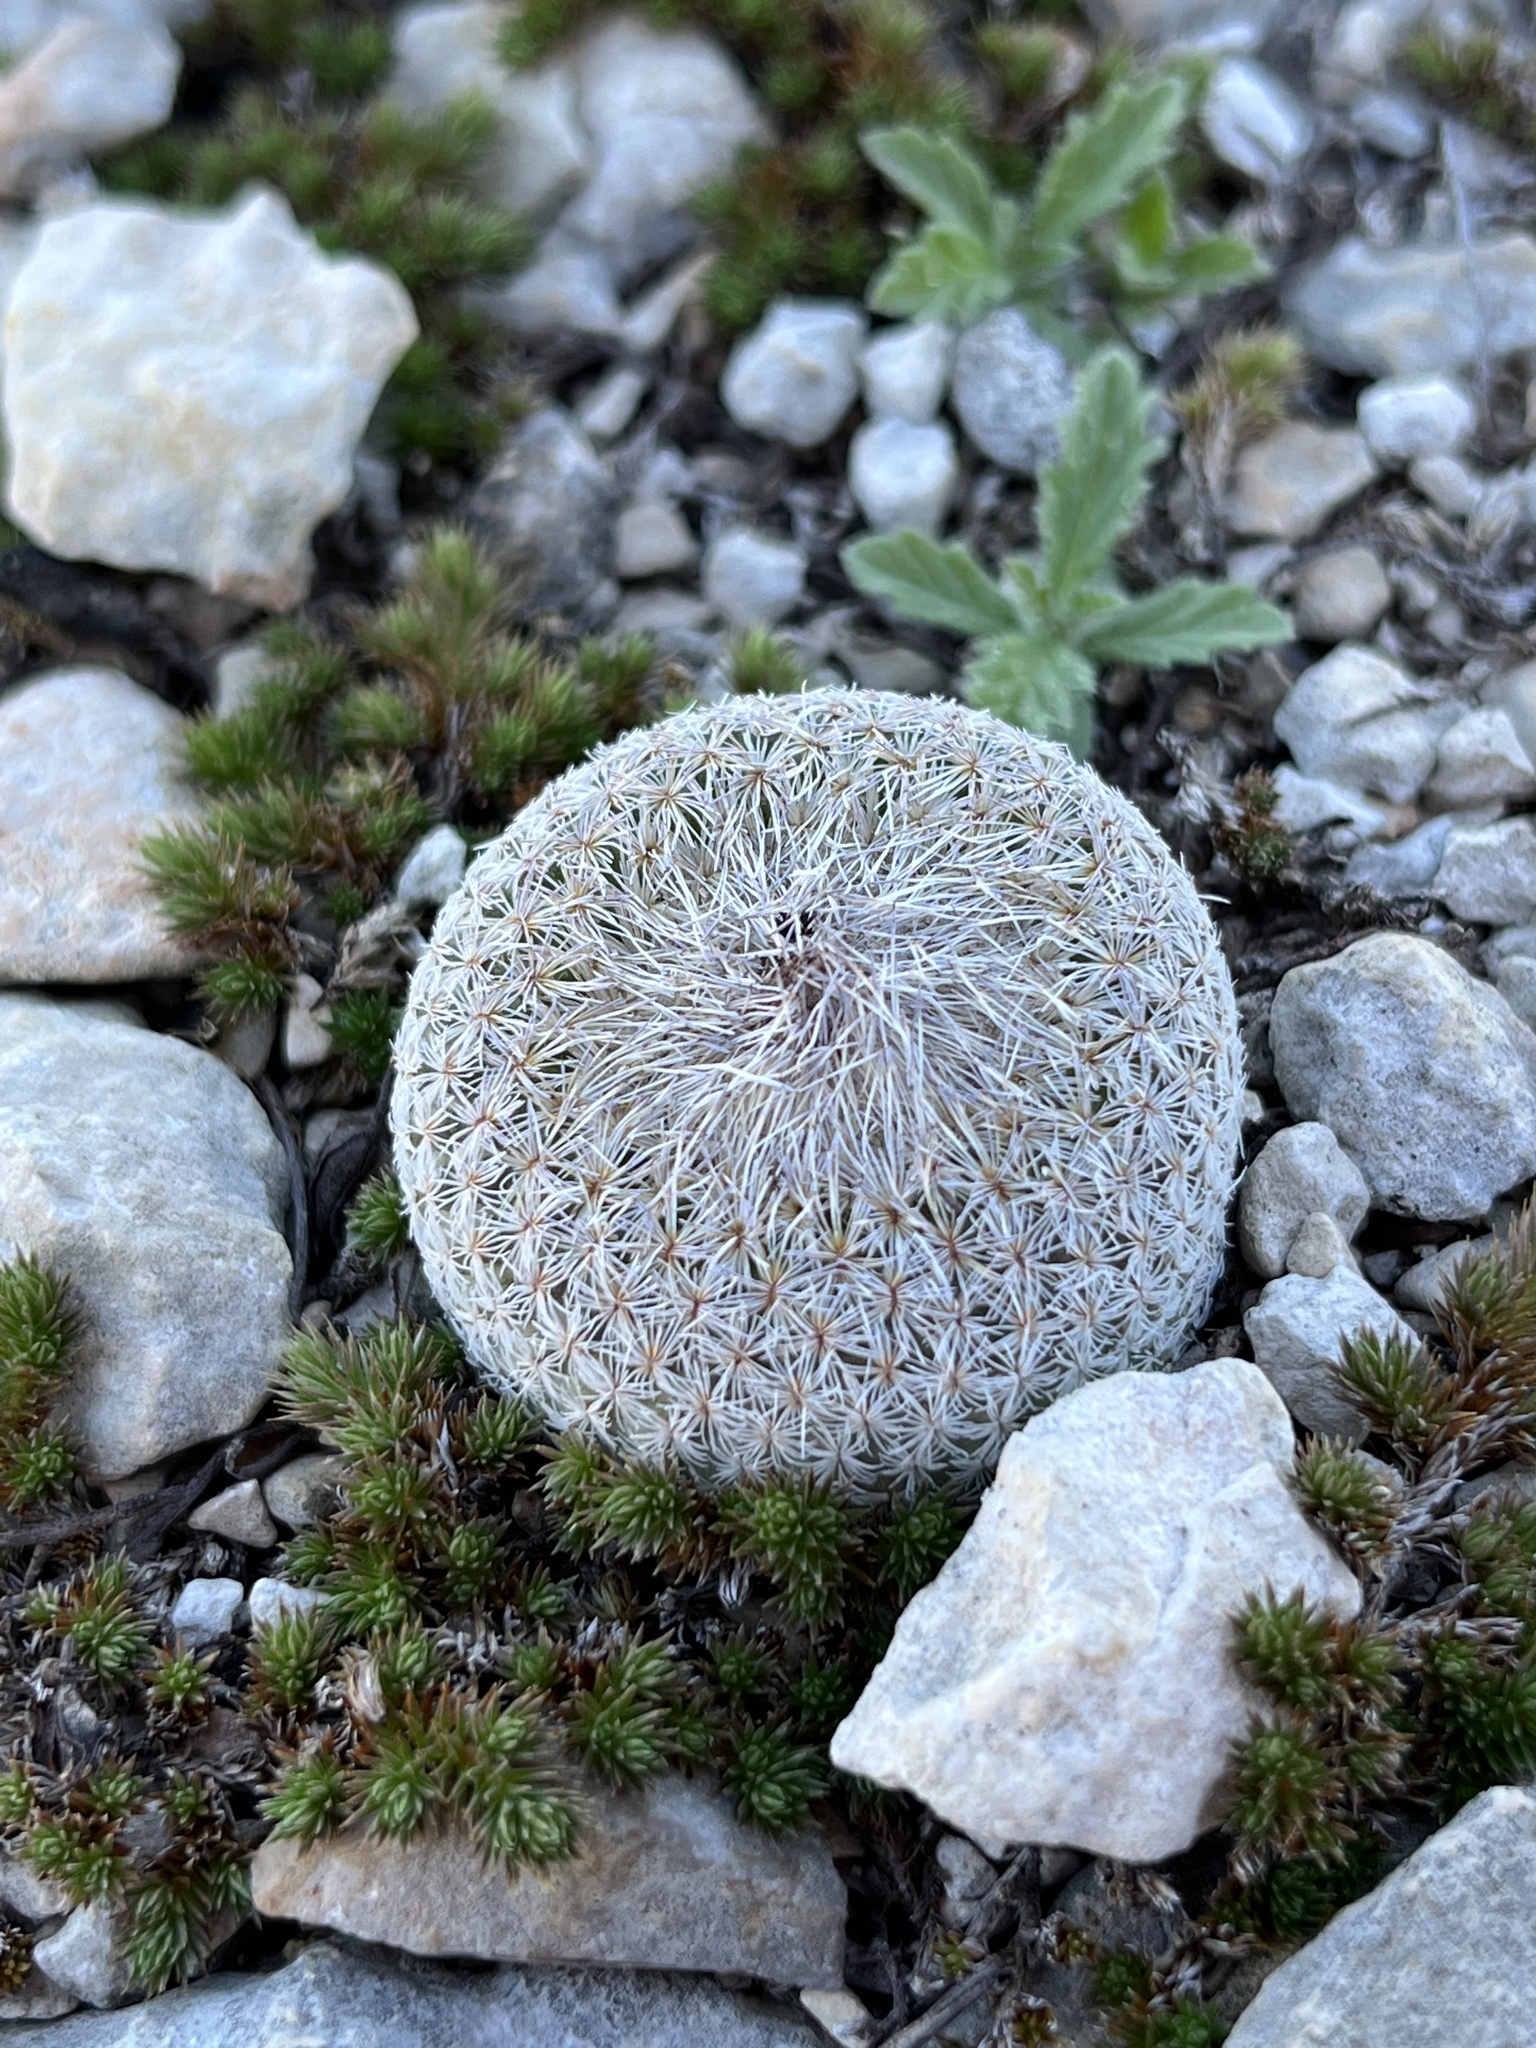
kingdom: Plantae
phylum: Tracheophyta
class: Magnoliopsida
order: Caryophyllales
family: Cactaceae
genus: Epithelantha
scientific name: Epithelantha micromeris
